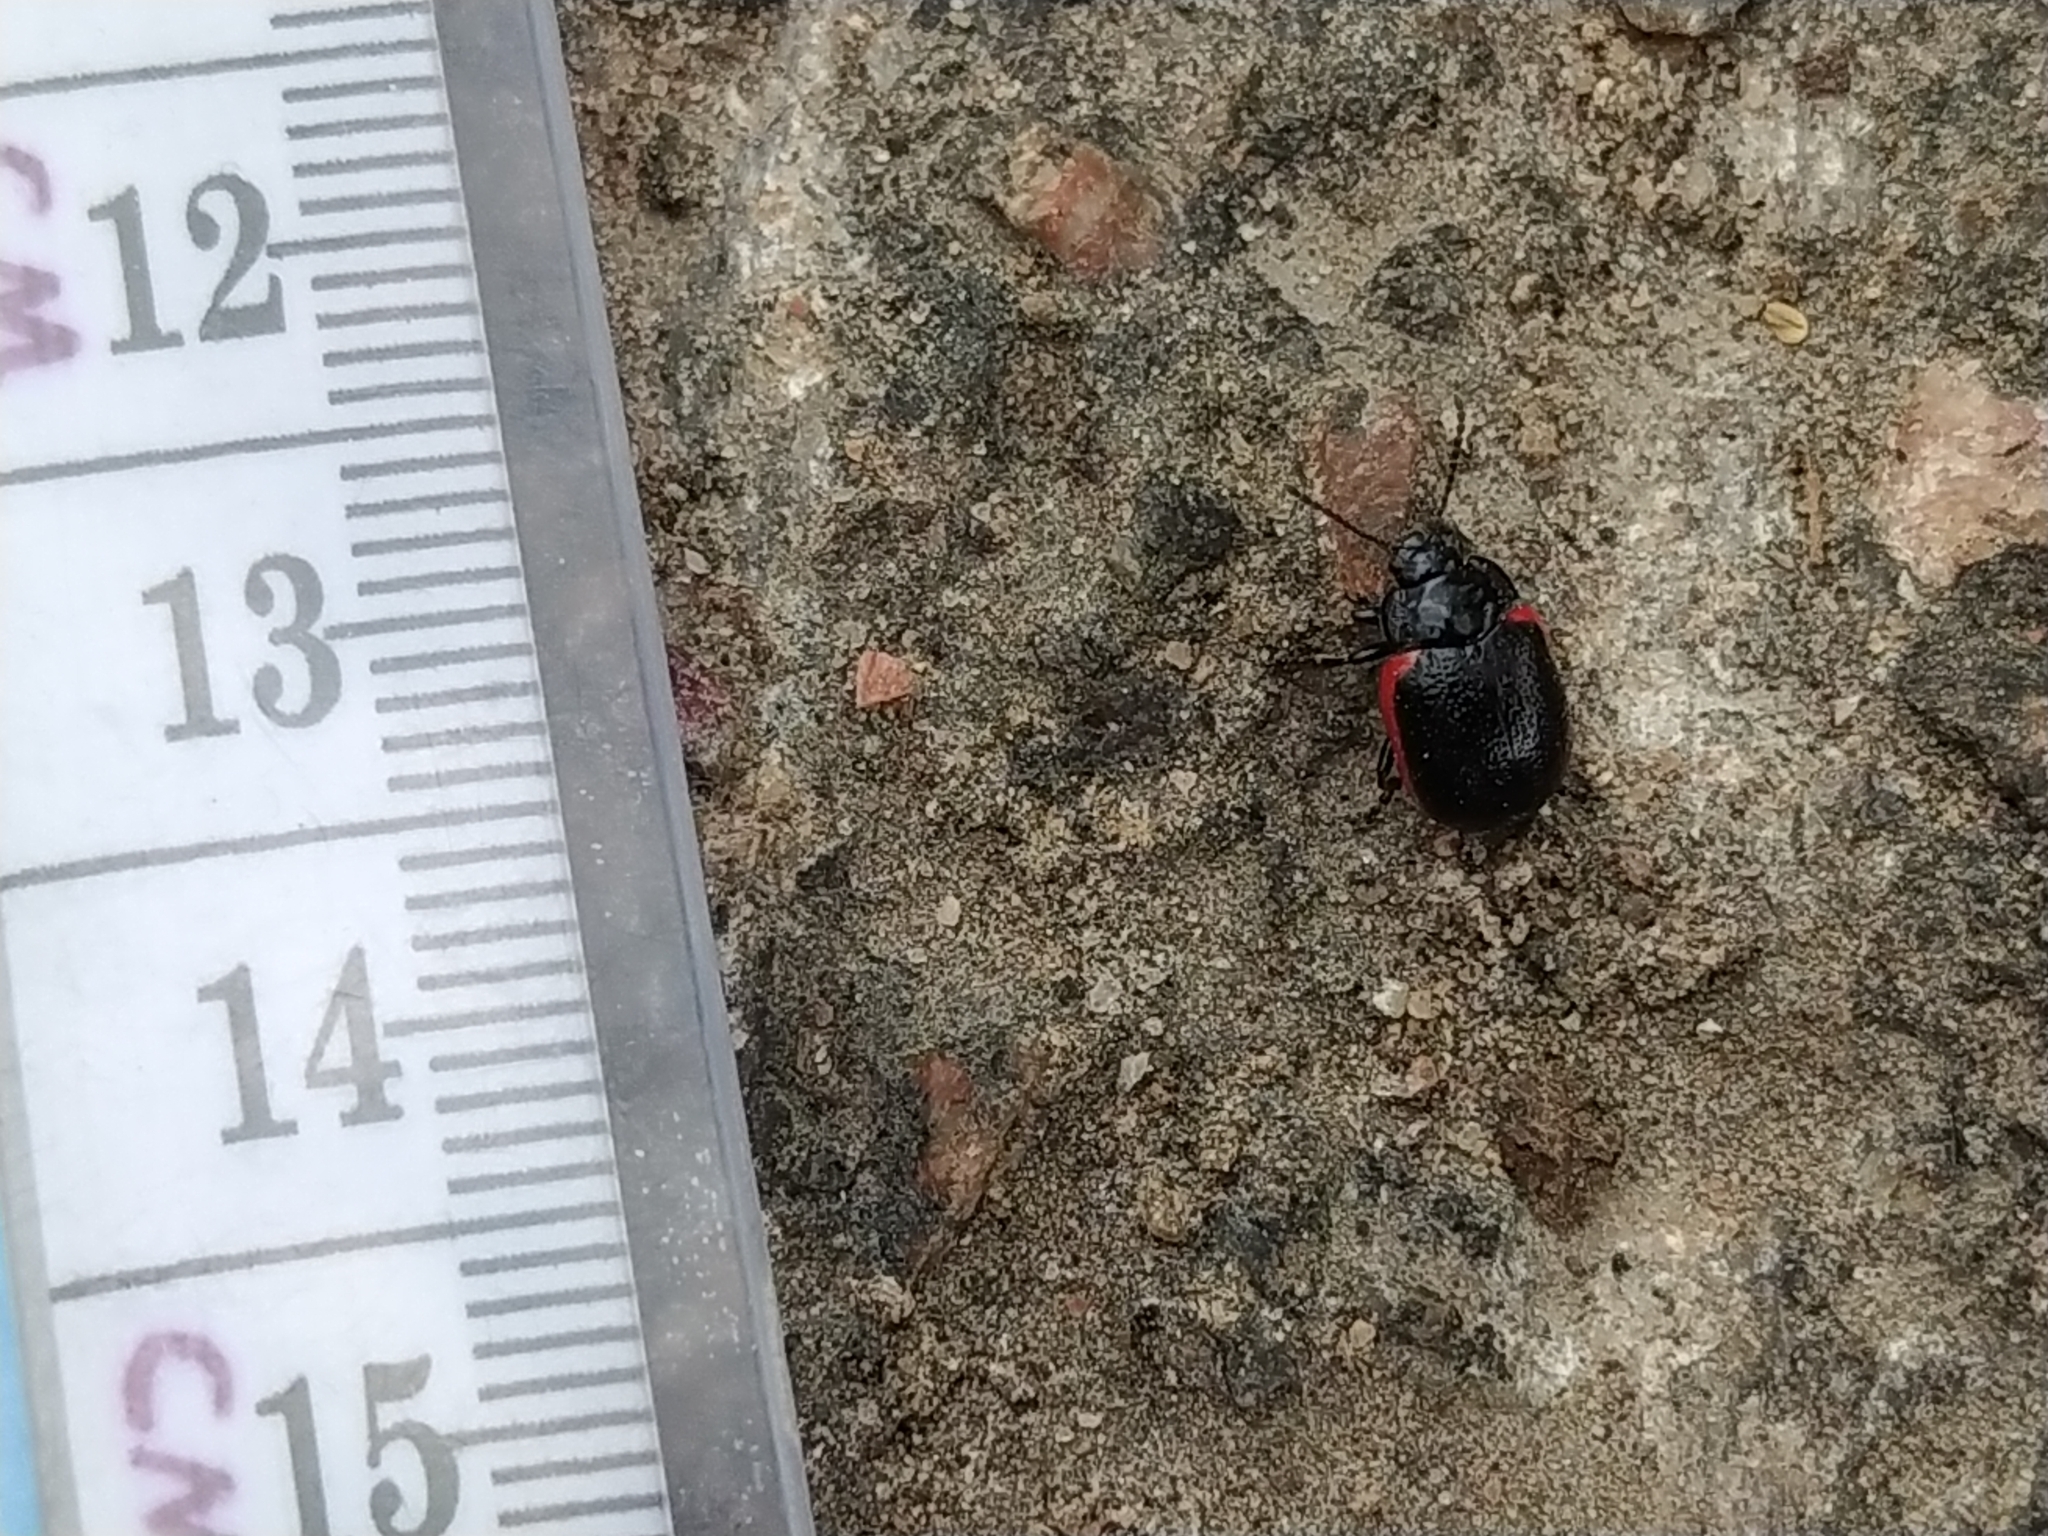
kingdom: Animalia
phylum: Arthropoda
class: Insecta
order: Coleoptera
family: Chrysomelidae
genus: Chrysolina
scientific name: Chrysolina sanguinolenta
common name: Toadflax leaf beetle
